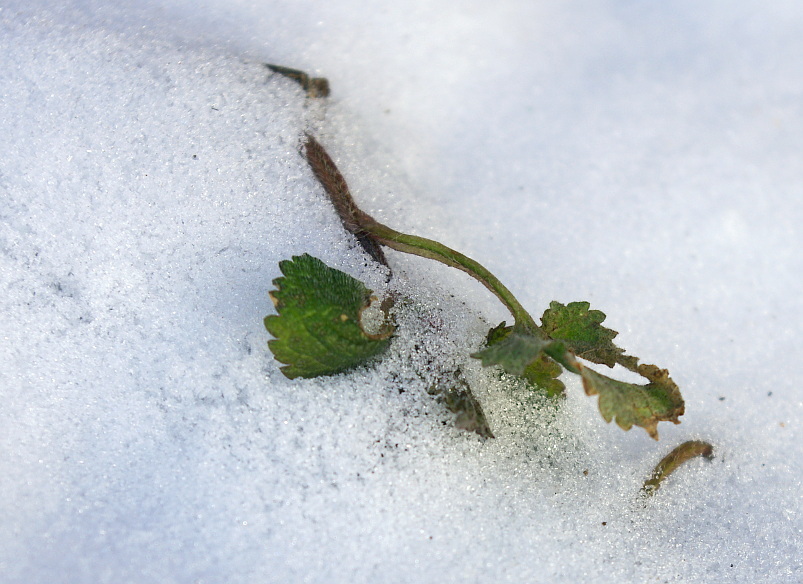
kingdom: Plantae
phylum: Tracheophyta
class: Magnoliopsida
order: Lamiales
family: Lamiaceae
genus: Lamium
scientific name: Lamium album
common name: White dead-nettle
